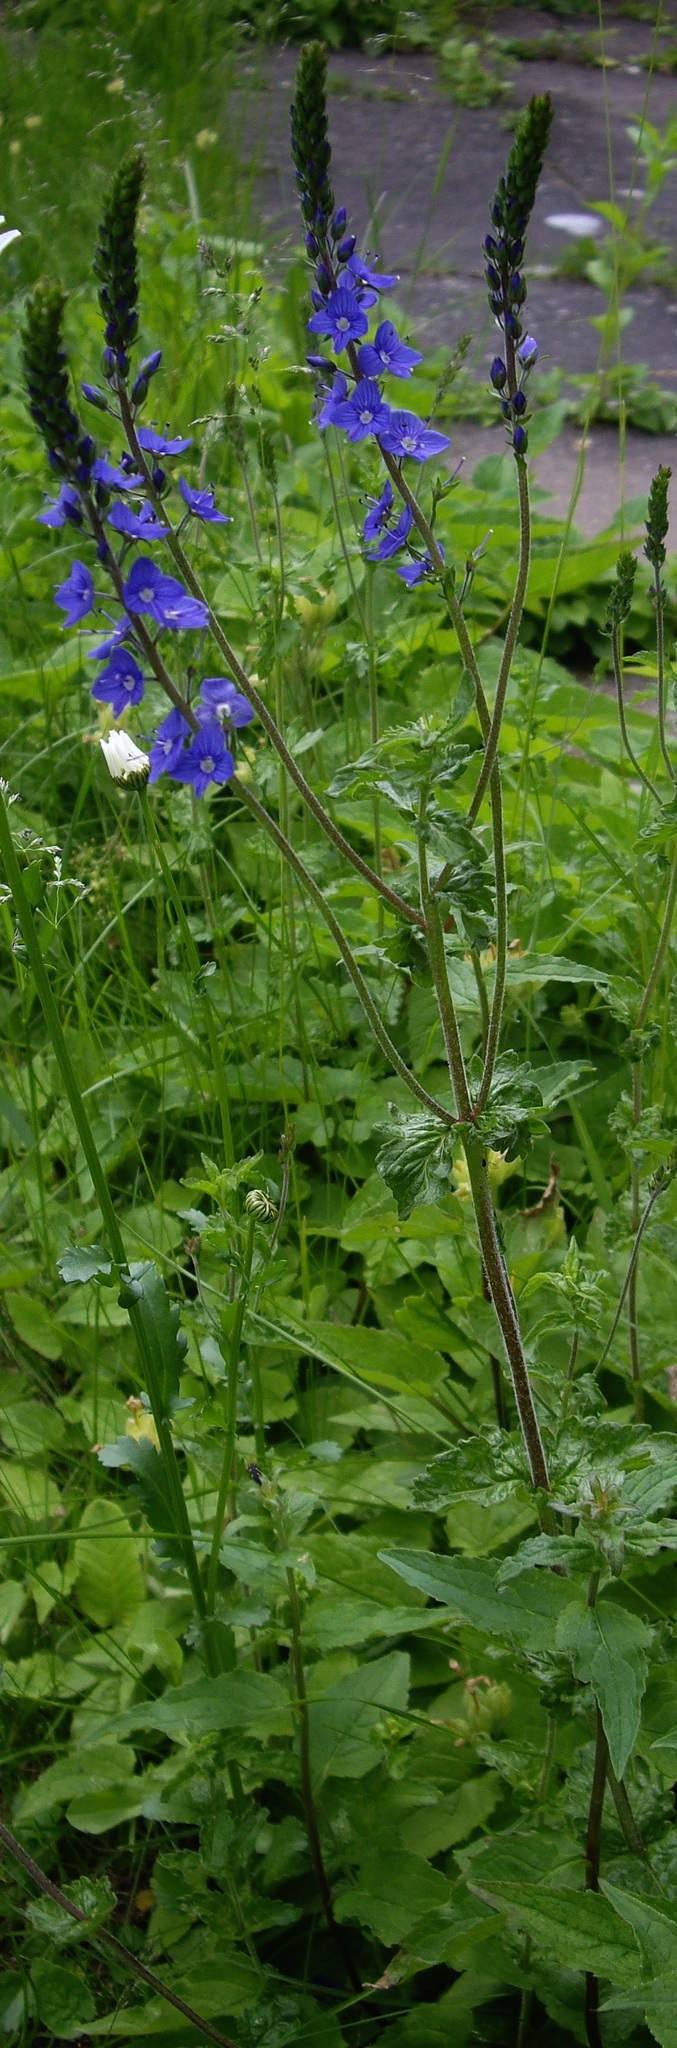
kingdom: Plantae
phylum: Tracheophyta
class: Magnoliopsida
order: Lamiales
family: Plantaginaceae
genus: Veronica
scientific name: Veronica teucrium
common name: Large speedwell
